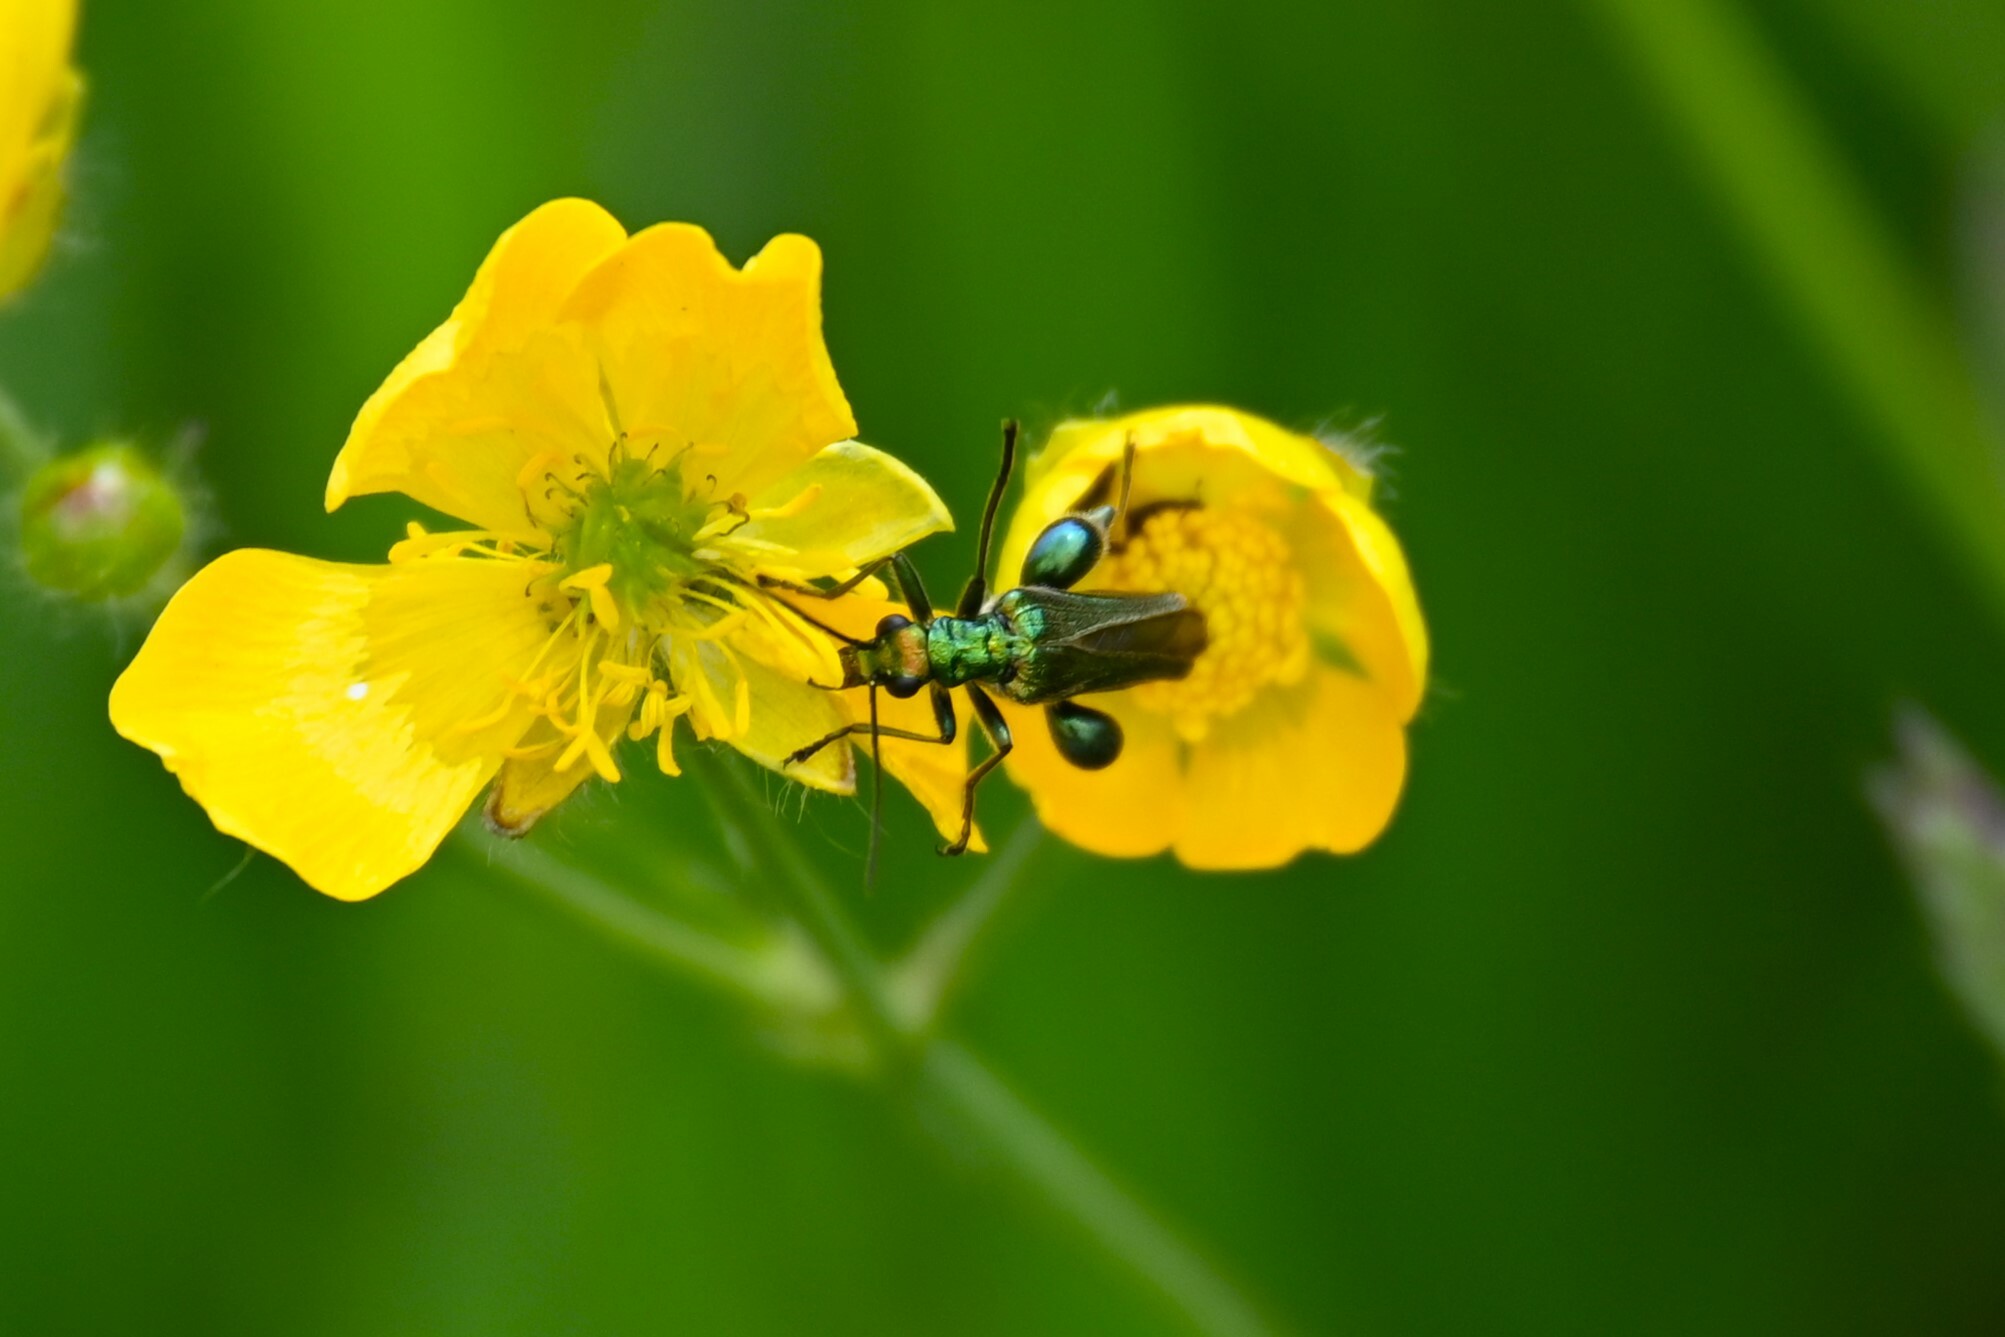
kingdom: Animalia
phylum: Arthropoda
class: Insecta
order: Coleoptera
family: Oedemeridae
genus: Oedemera
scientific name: Oedemera nobilis
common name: Swollen-thighed beetle
